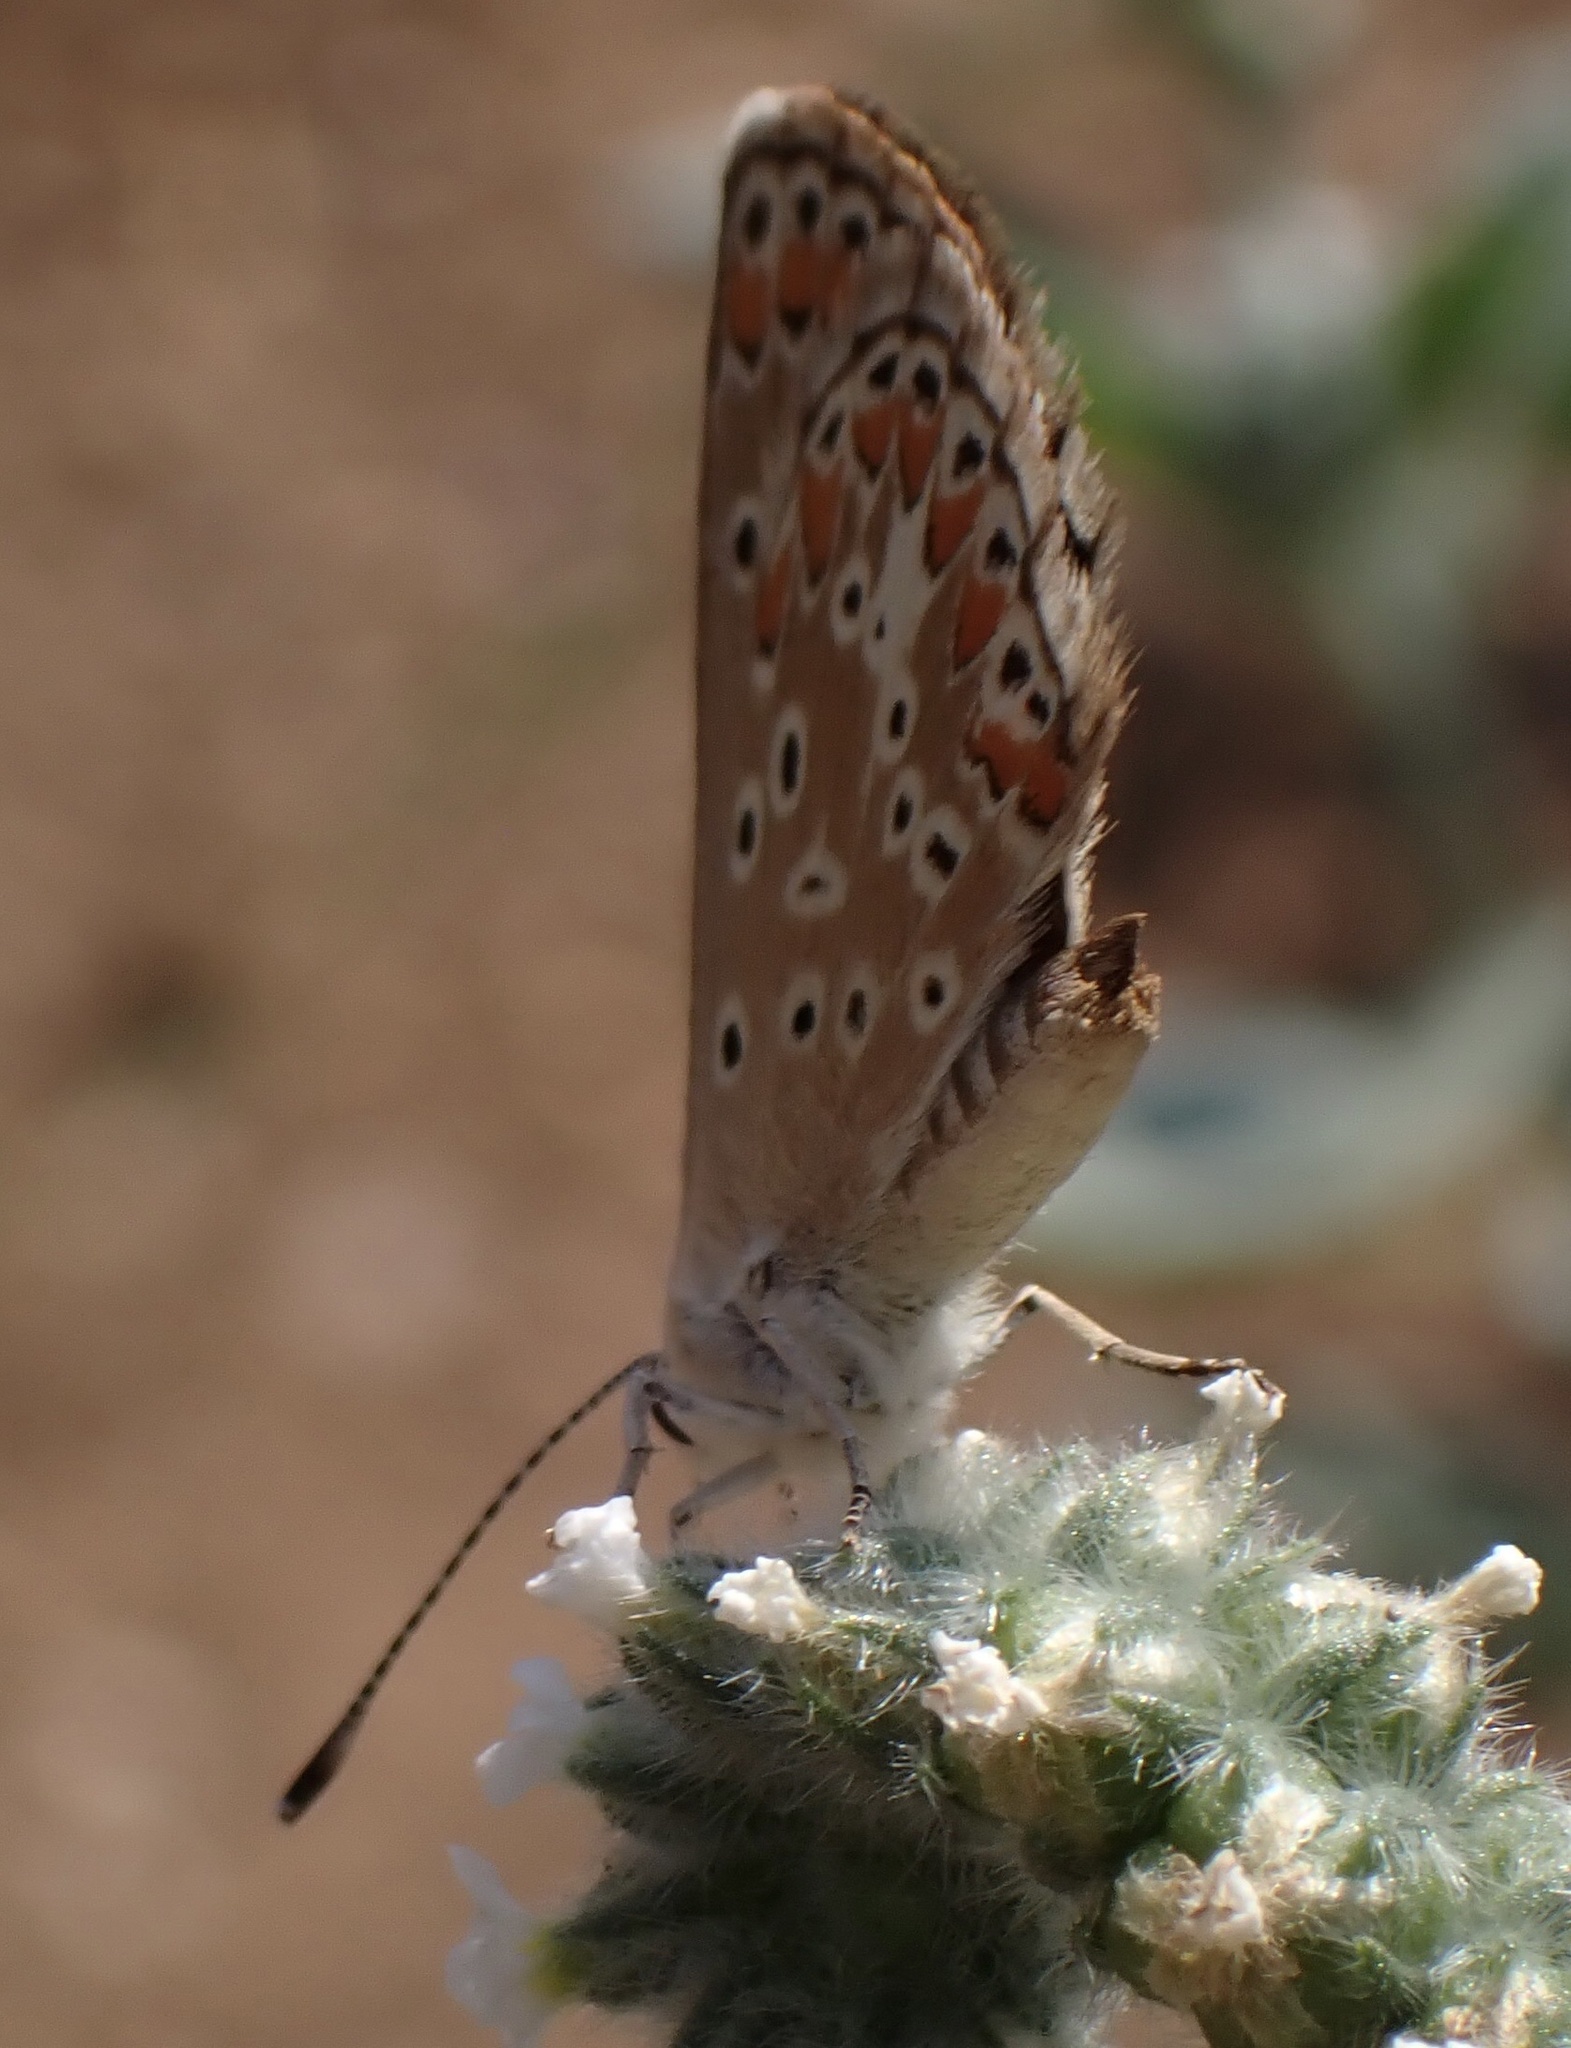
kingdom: Animalia
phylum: Arthropoda
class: Insecta
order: Lepidoptera
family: Lycaenidae
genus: Aricia
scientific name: Aricia agestis
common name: Brown argus
